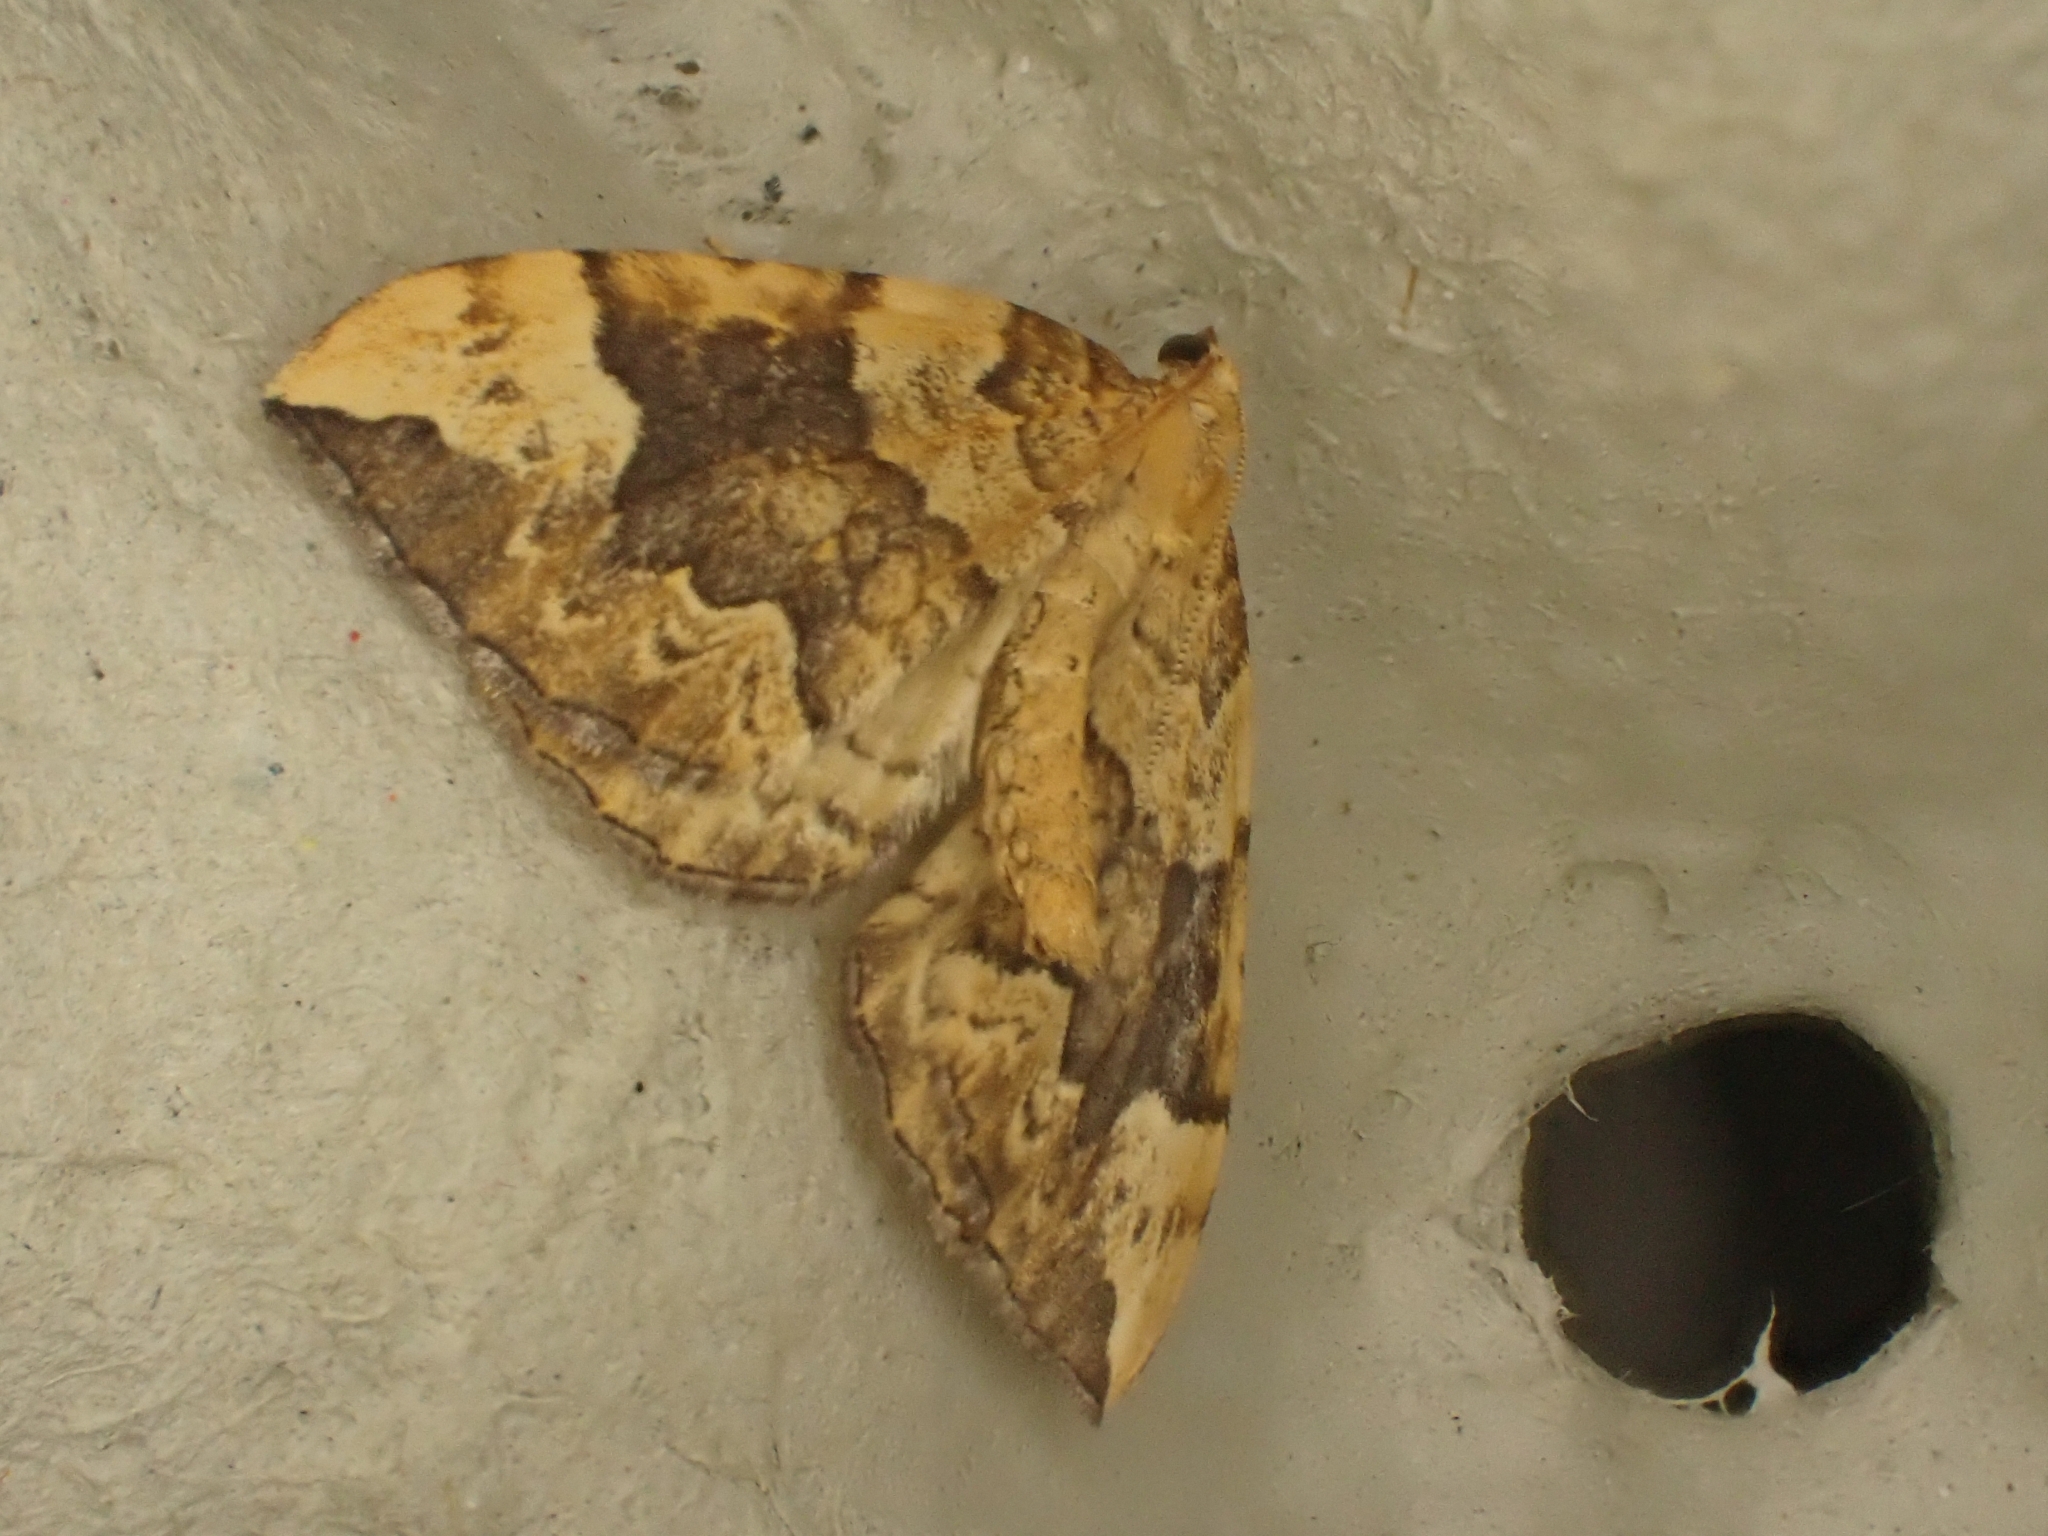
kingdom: Animalia
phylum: Arthropoda
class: Insecta
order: Lepidoptera
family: Geometridae
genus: Eulithis
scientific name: Eulithis populata
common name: Northern spinach
